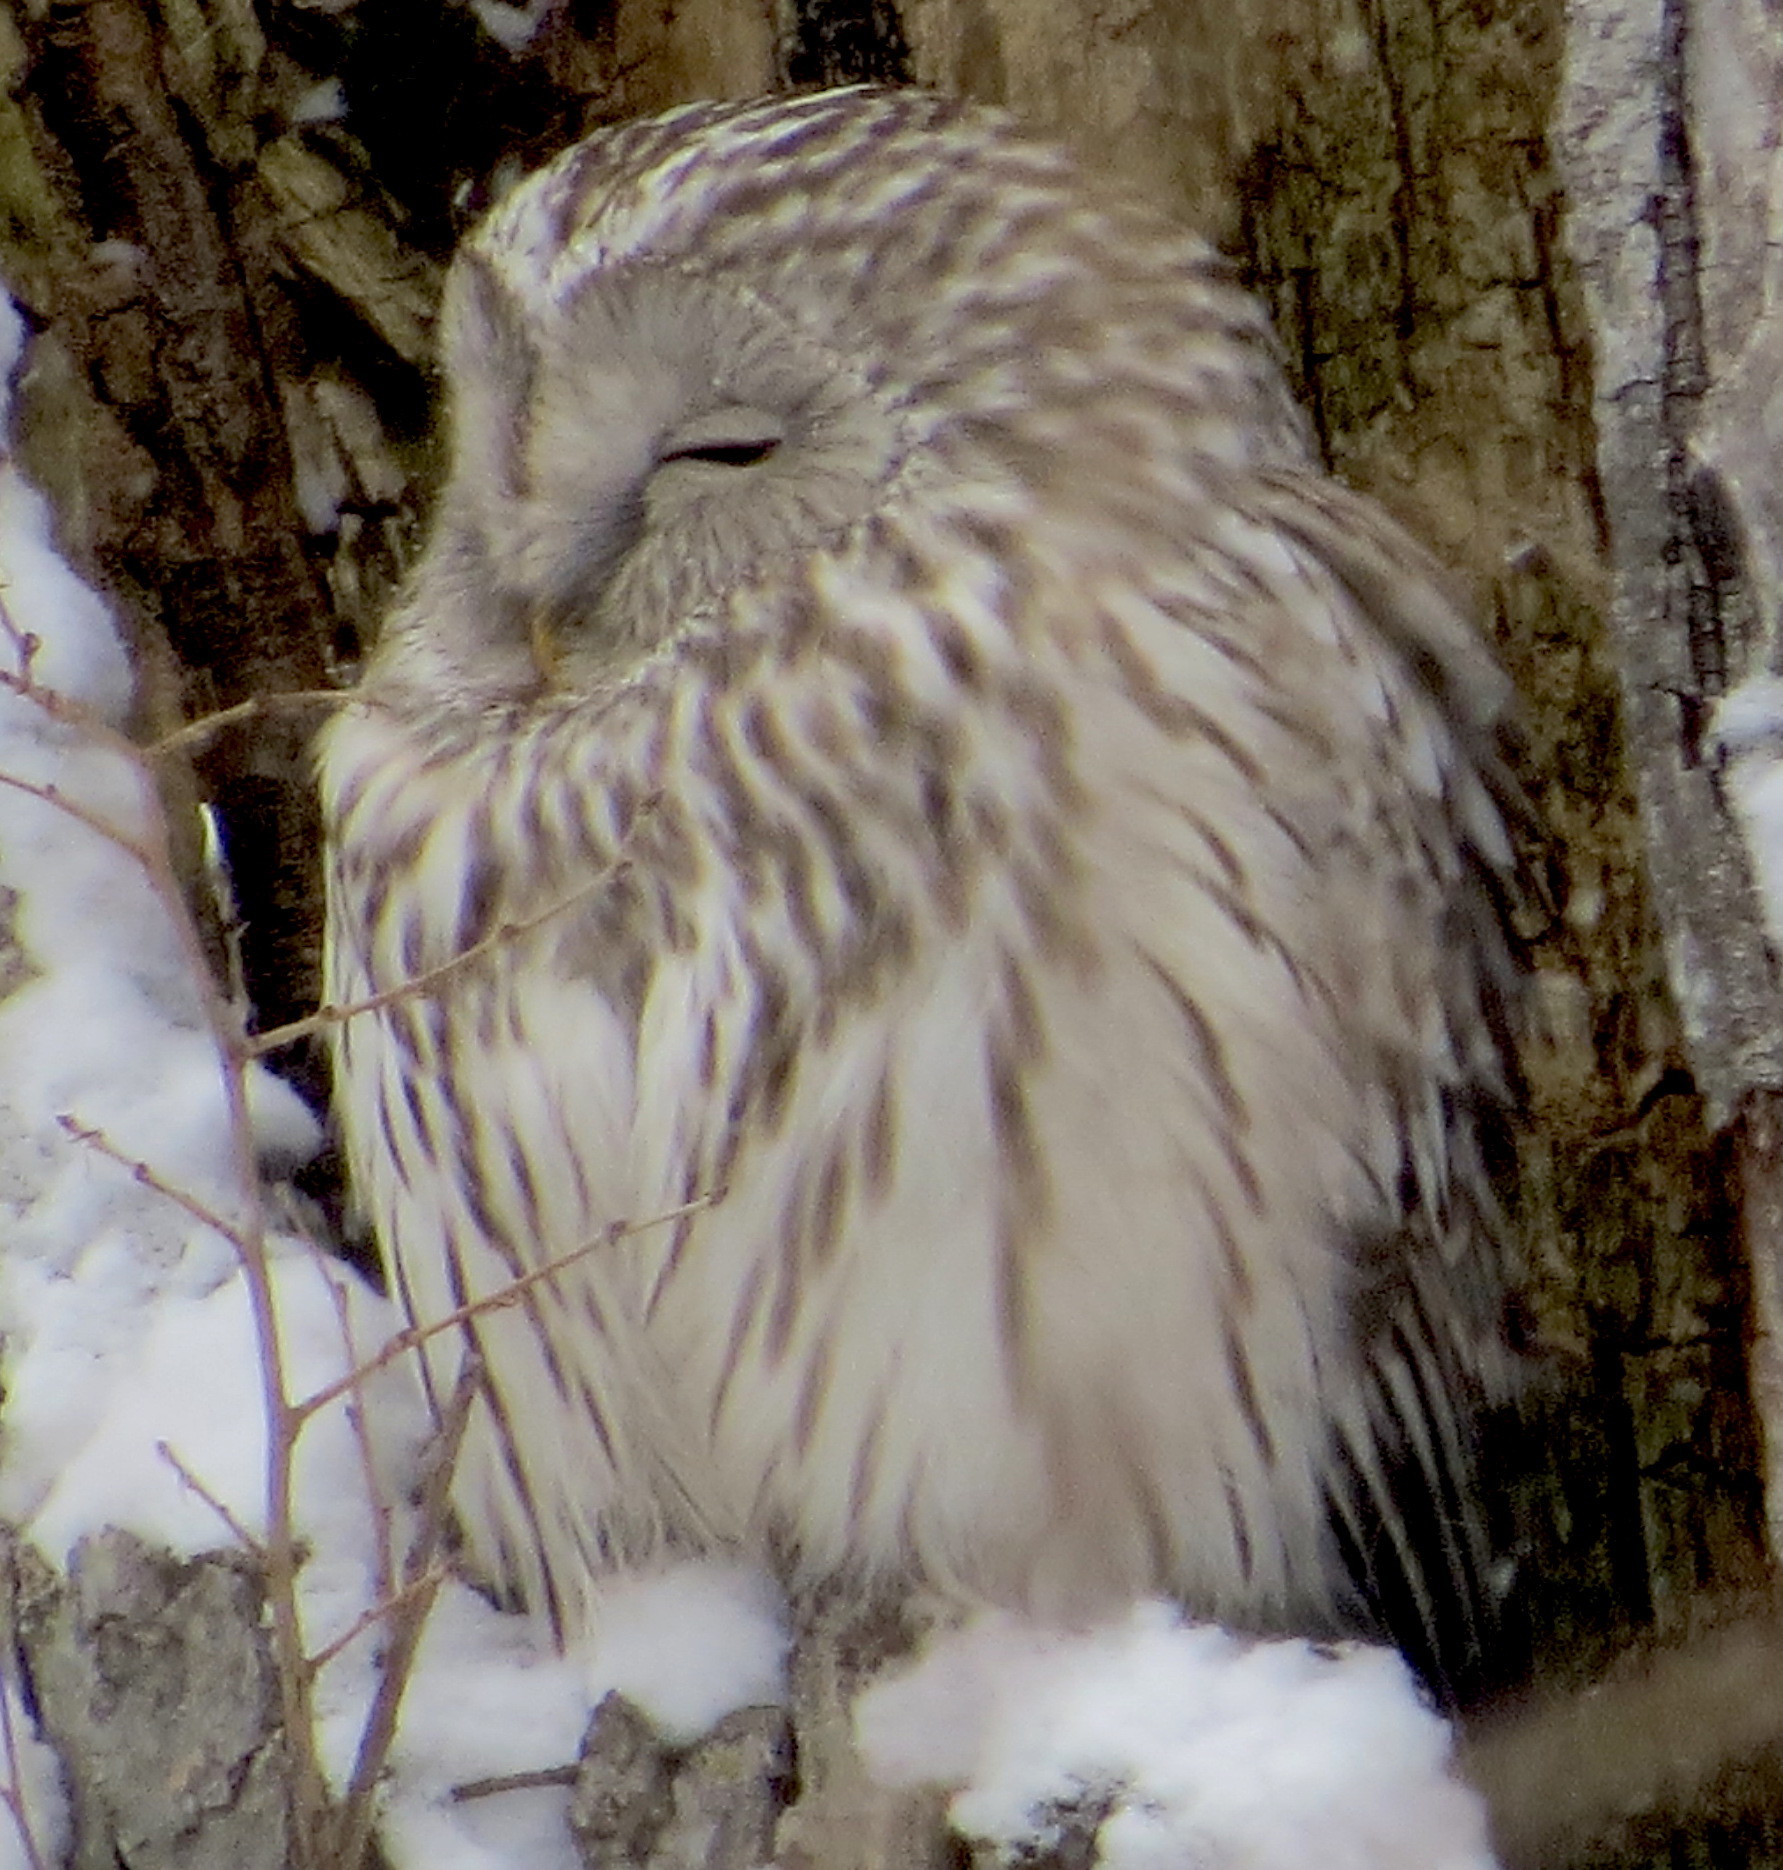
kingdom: Animalia
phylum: Chordata
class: Aves
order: Strigiformes
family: Strigidae
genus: Strix
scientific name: Strix uralensis
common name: Ural owl
